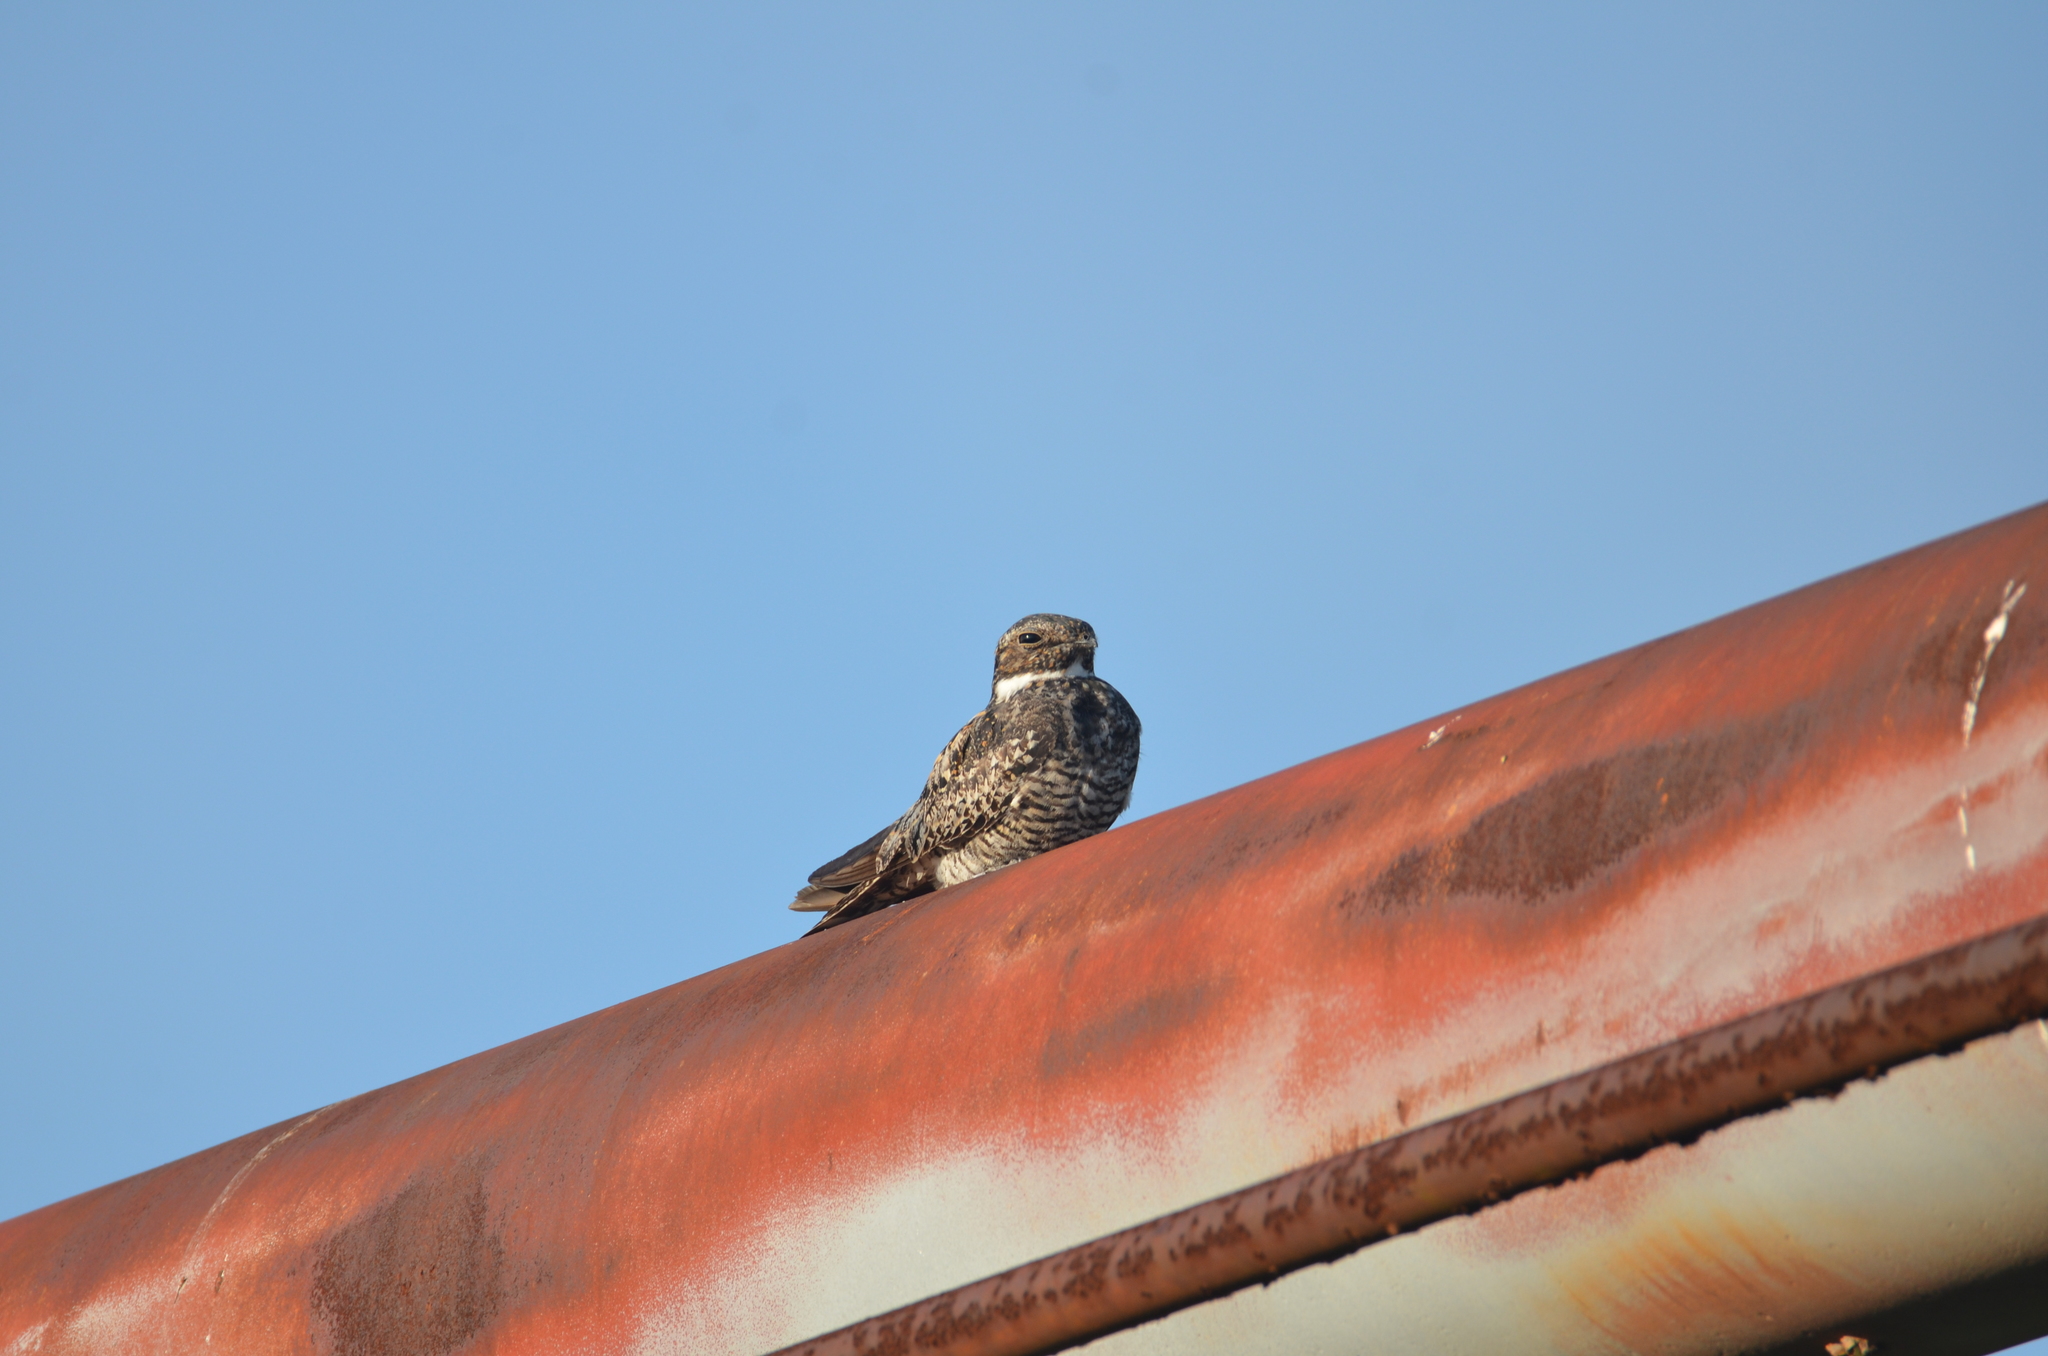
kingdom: Animalia
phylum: Chordata
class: Aves
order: Caprimulgiformes
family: Caprimulgidae
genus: Chordeiles
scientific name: Chordeiles minor
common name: Common nighthawk
